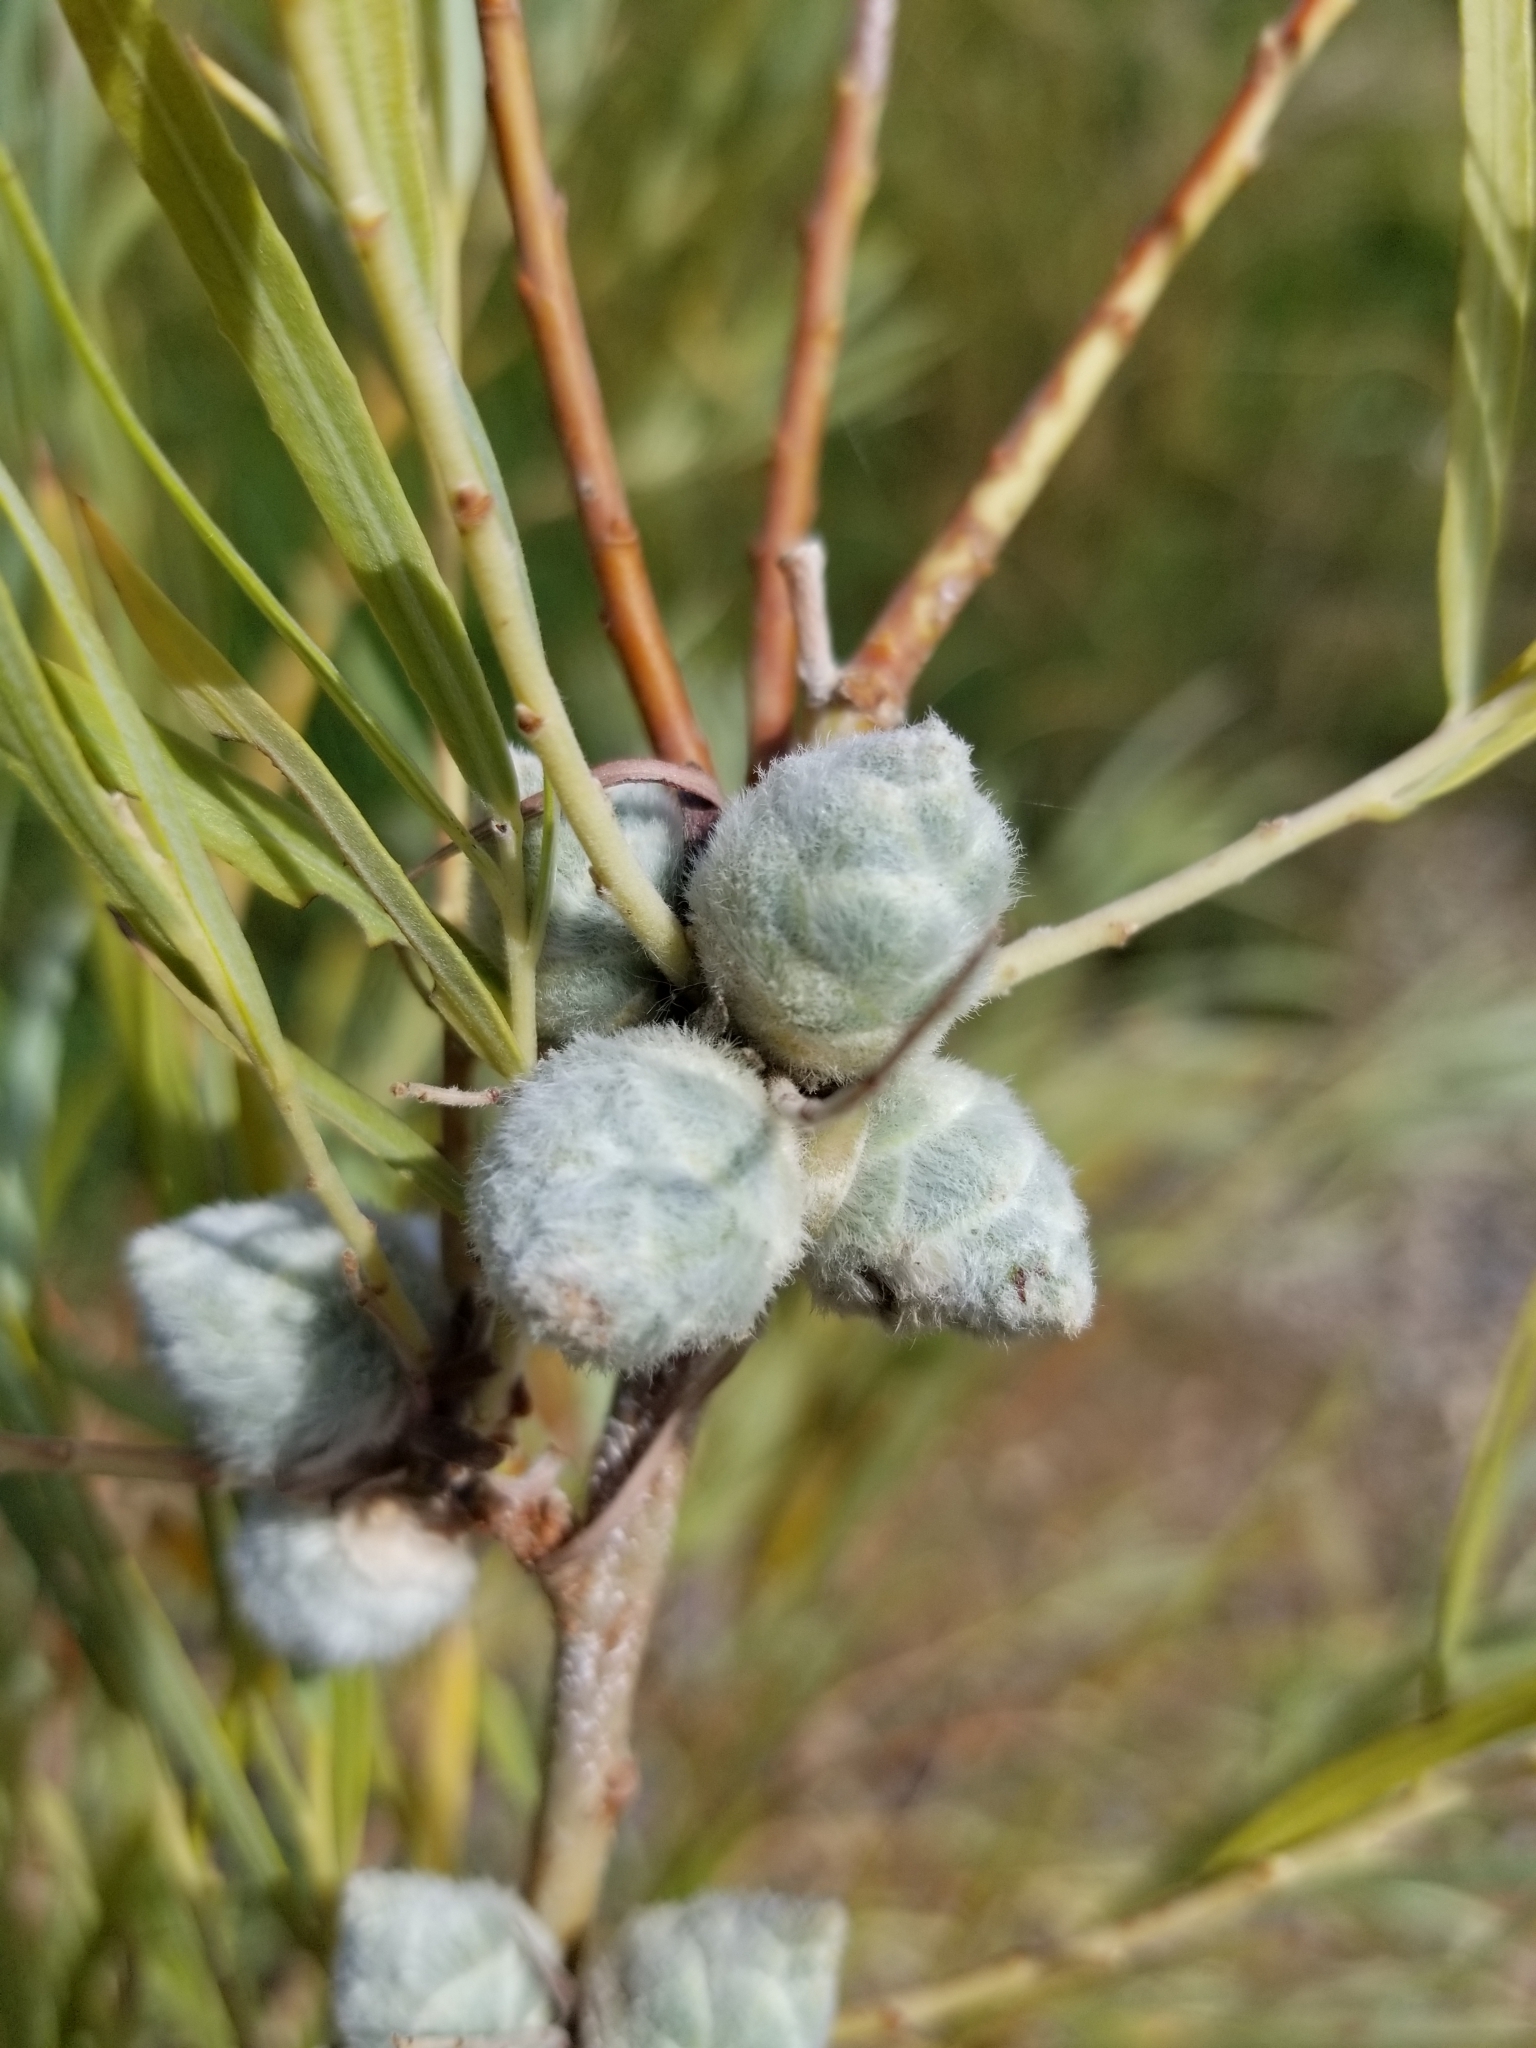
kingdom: Plantae
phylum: Tracheophyta
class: Magnoliopsida
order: Malpighiales
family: Salicaceae
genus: Salix
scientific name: Salix exigua
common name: Coyote willow
